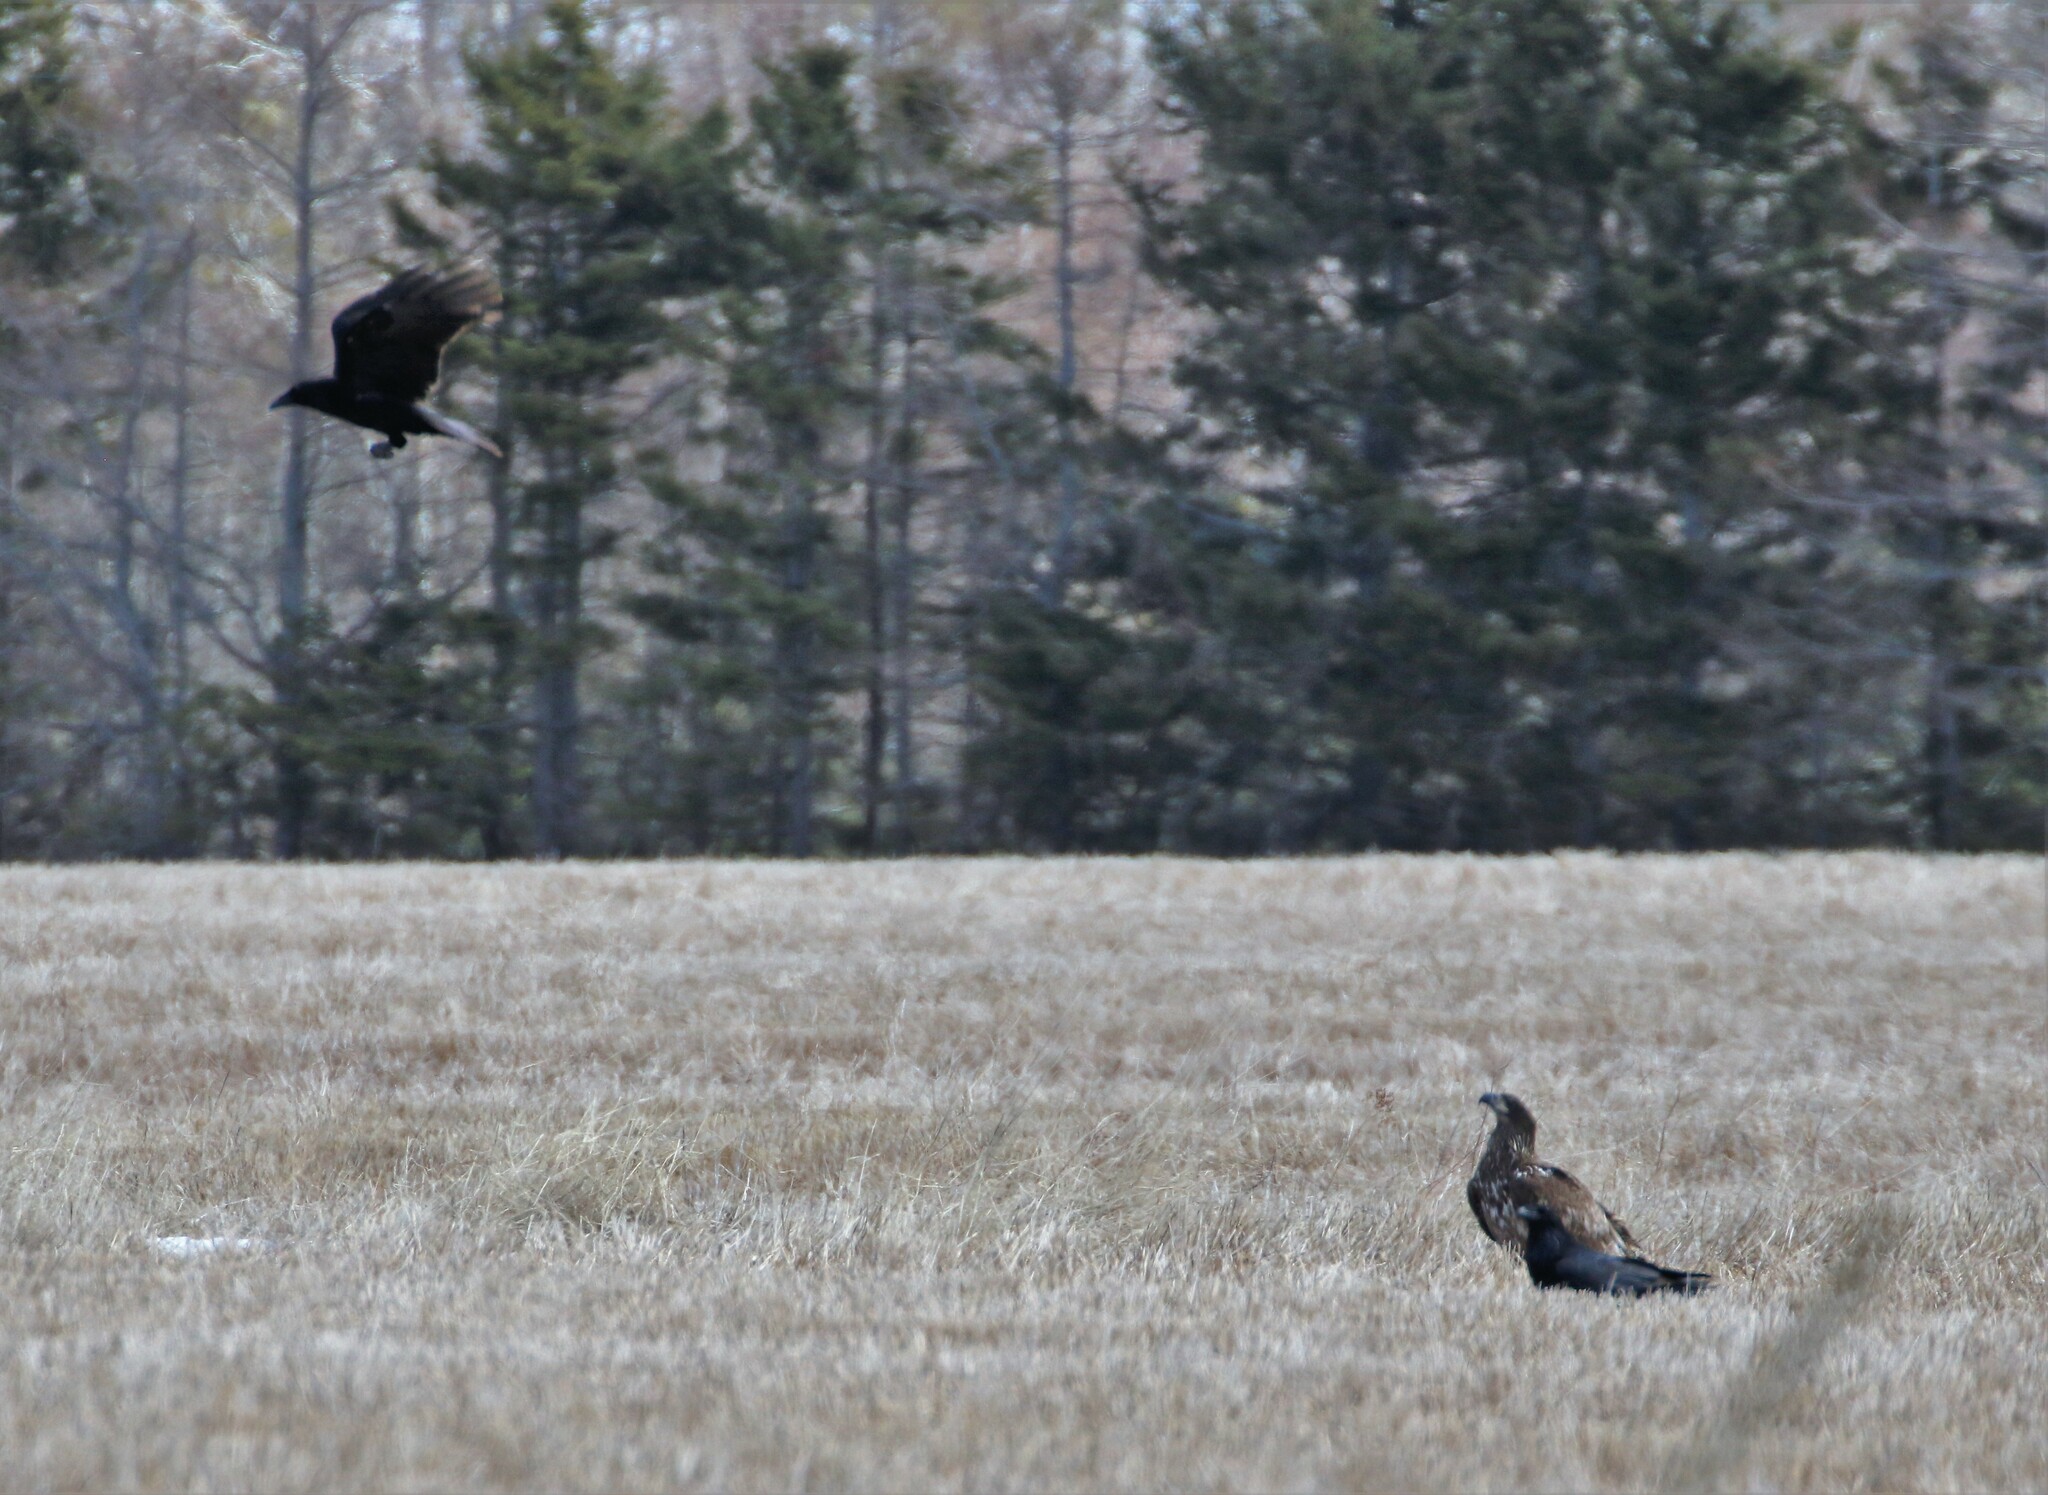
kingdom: Animalia
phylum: Chordata
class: Aves
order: Passeriformes
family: Corvidae
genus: Corvus
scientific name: Corvus corax
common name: Common raven
